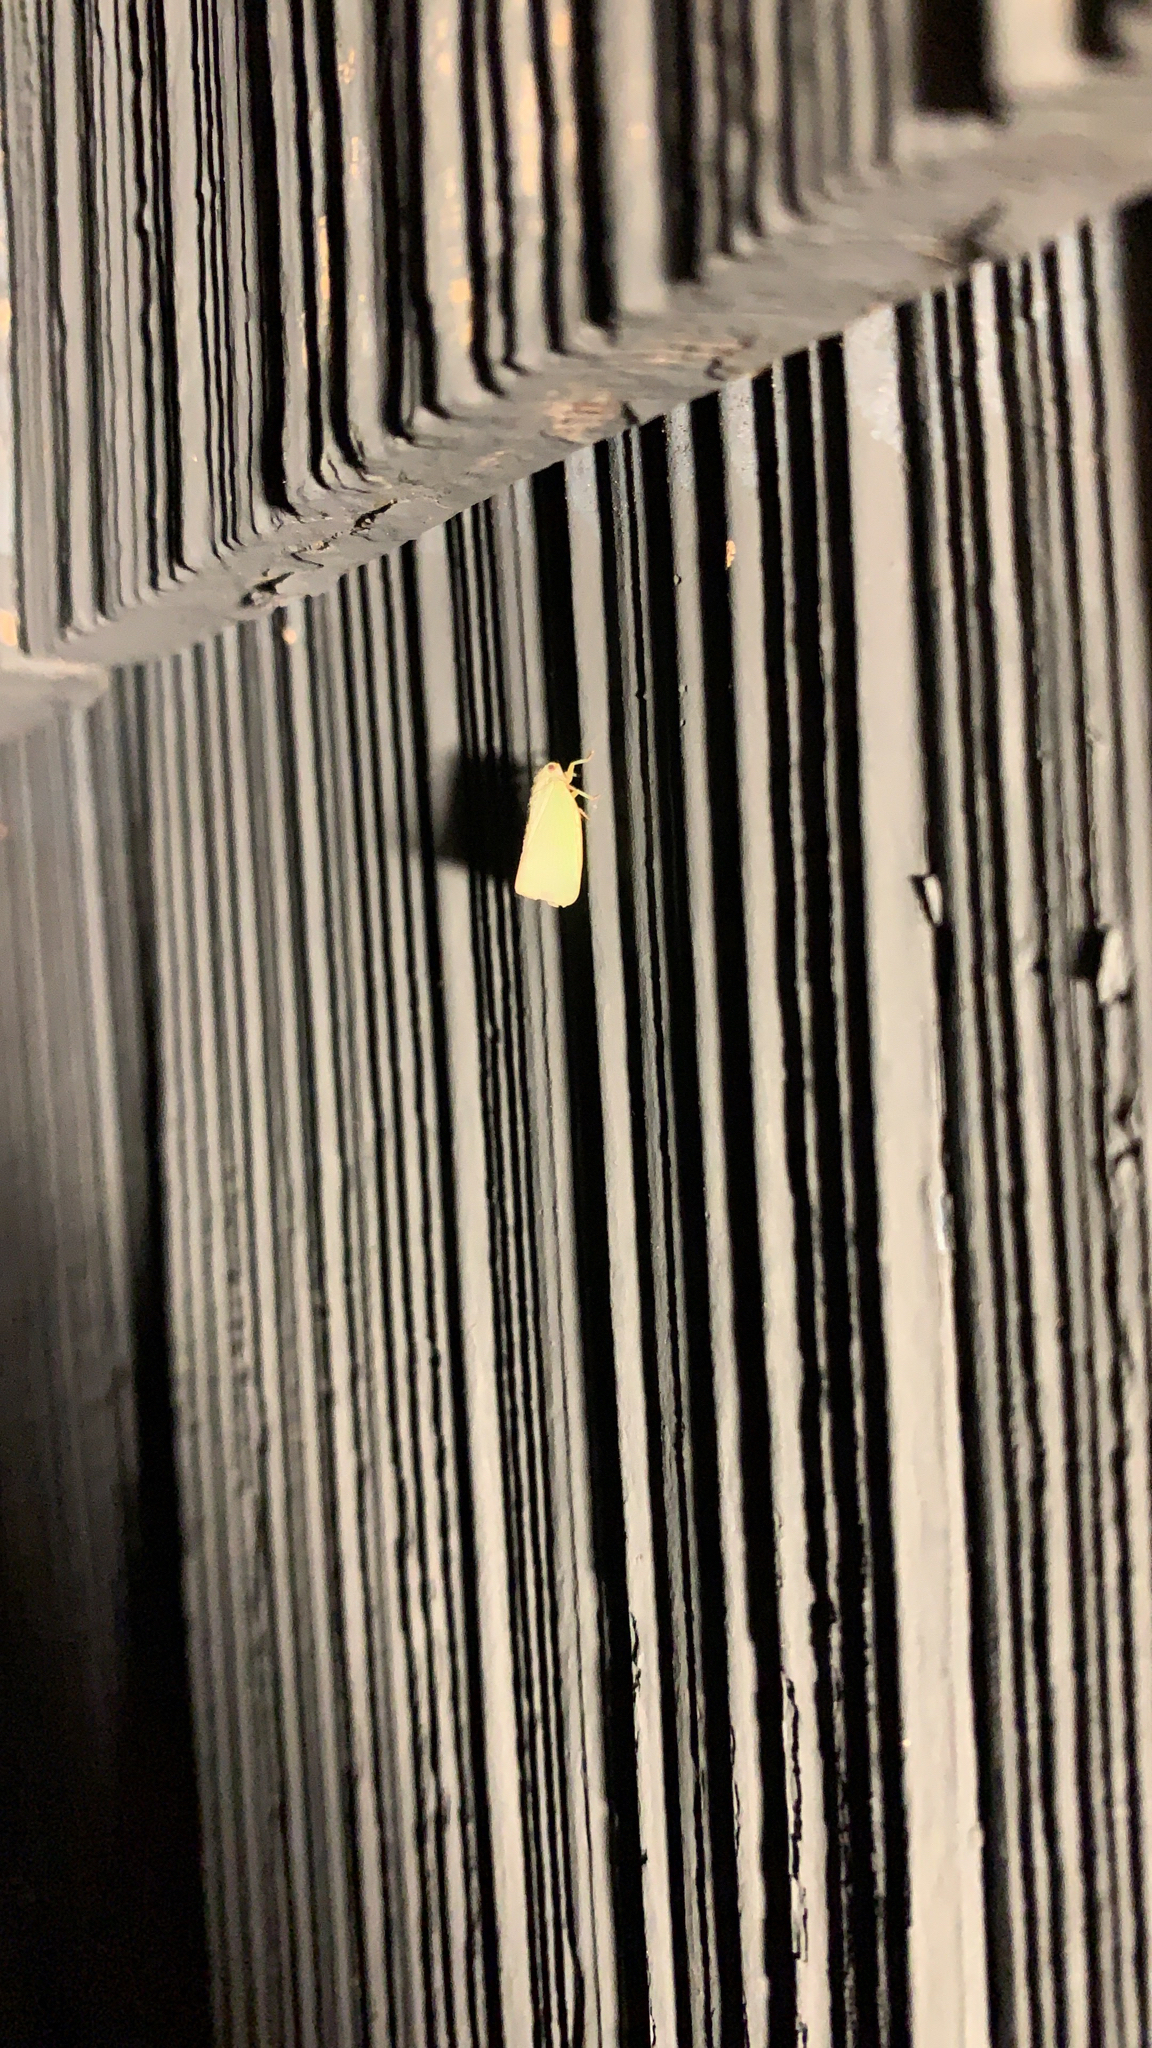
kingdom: Animalia
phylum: Arthropoda
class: Insecta
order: Hemiptera
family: Flatidae
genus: Flatormenis
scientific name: Flatormenis proxima
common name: Northern flatid planthopper
